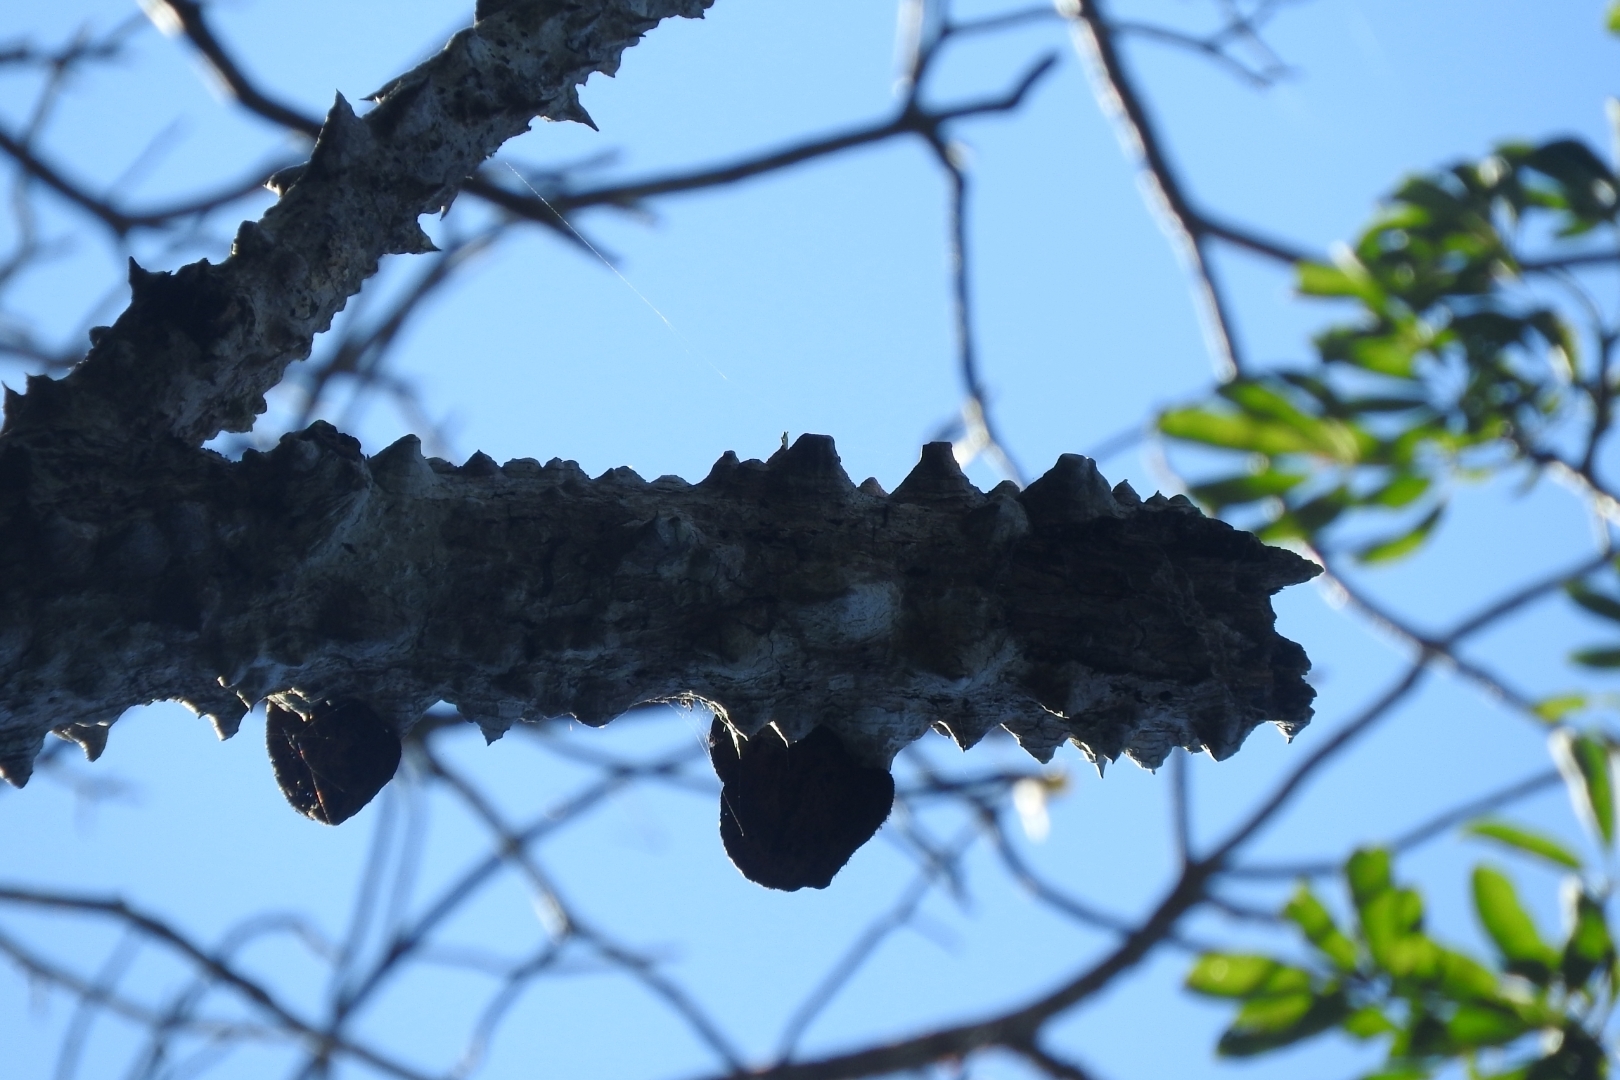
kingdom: Plantae
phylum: Tracheophyta
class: Magnoliopsida
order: Malvales
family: Malvaceae
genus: Ceiba
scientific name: Ceiba aesculifolia
